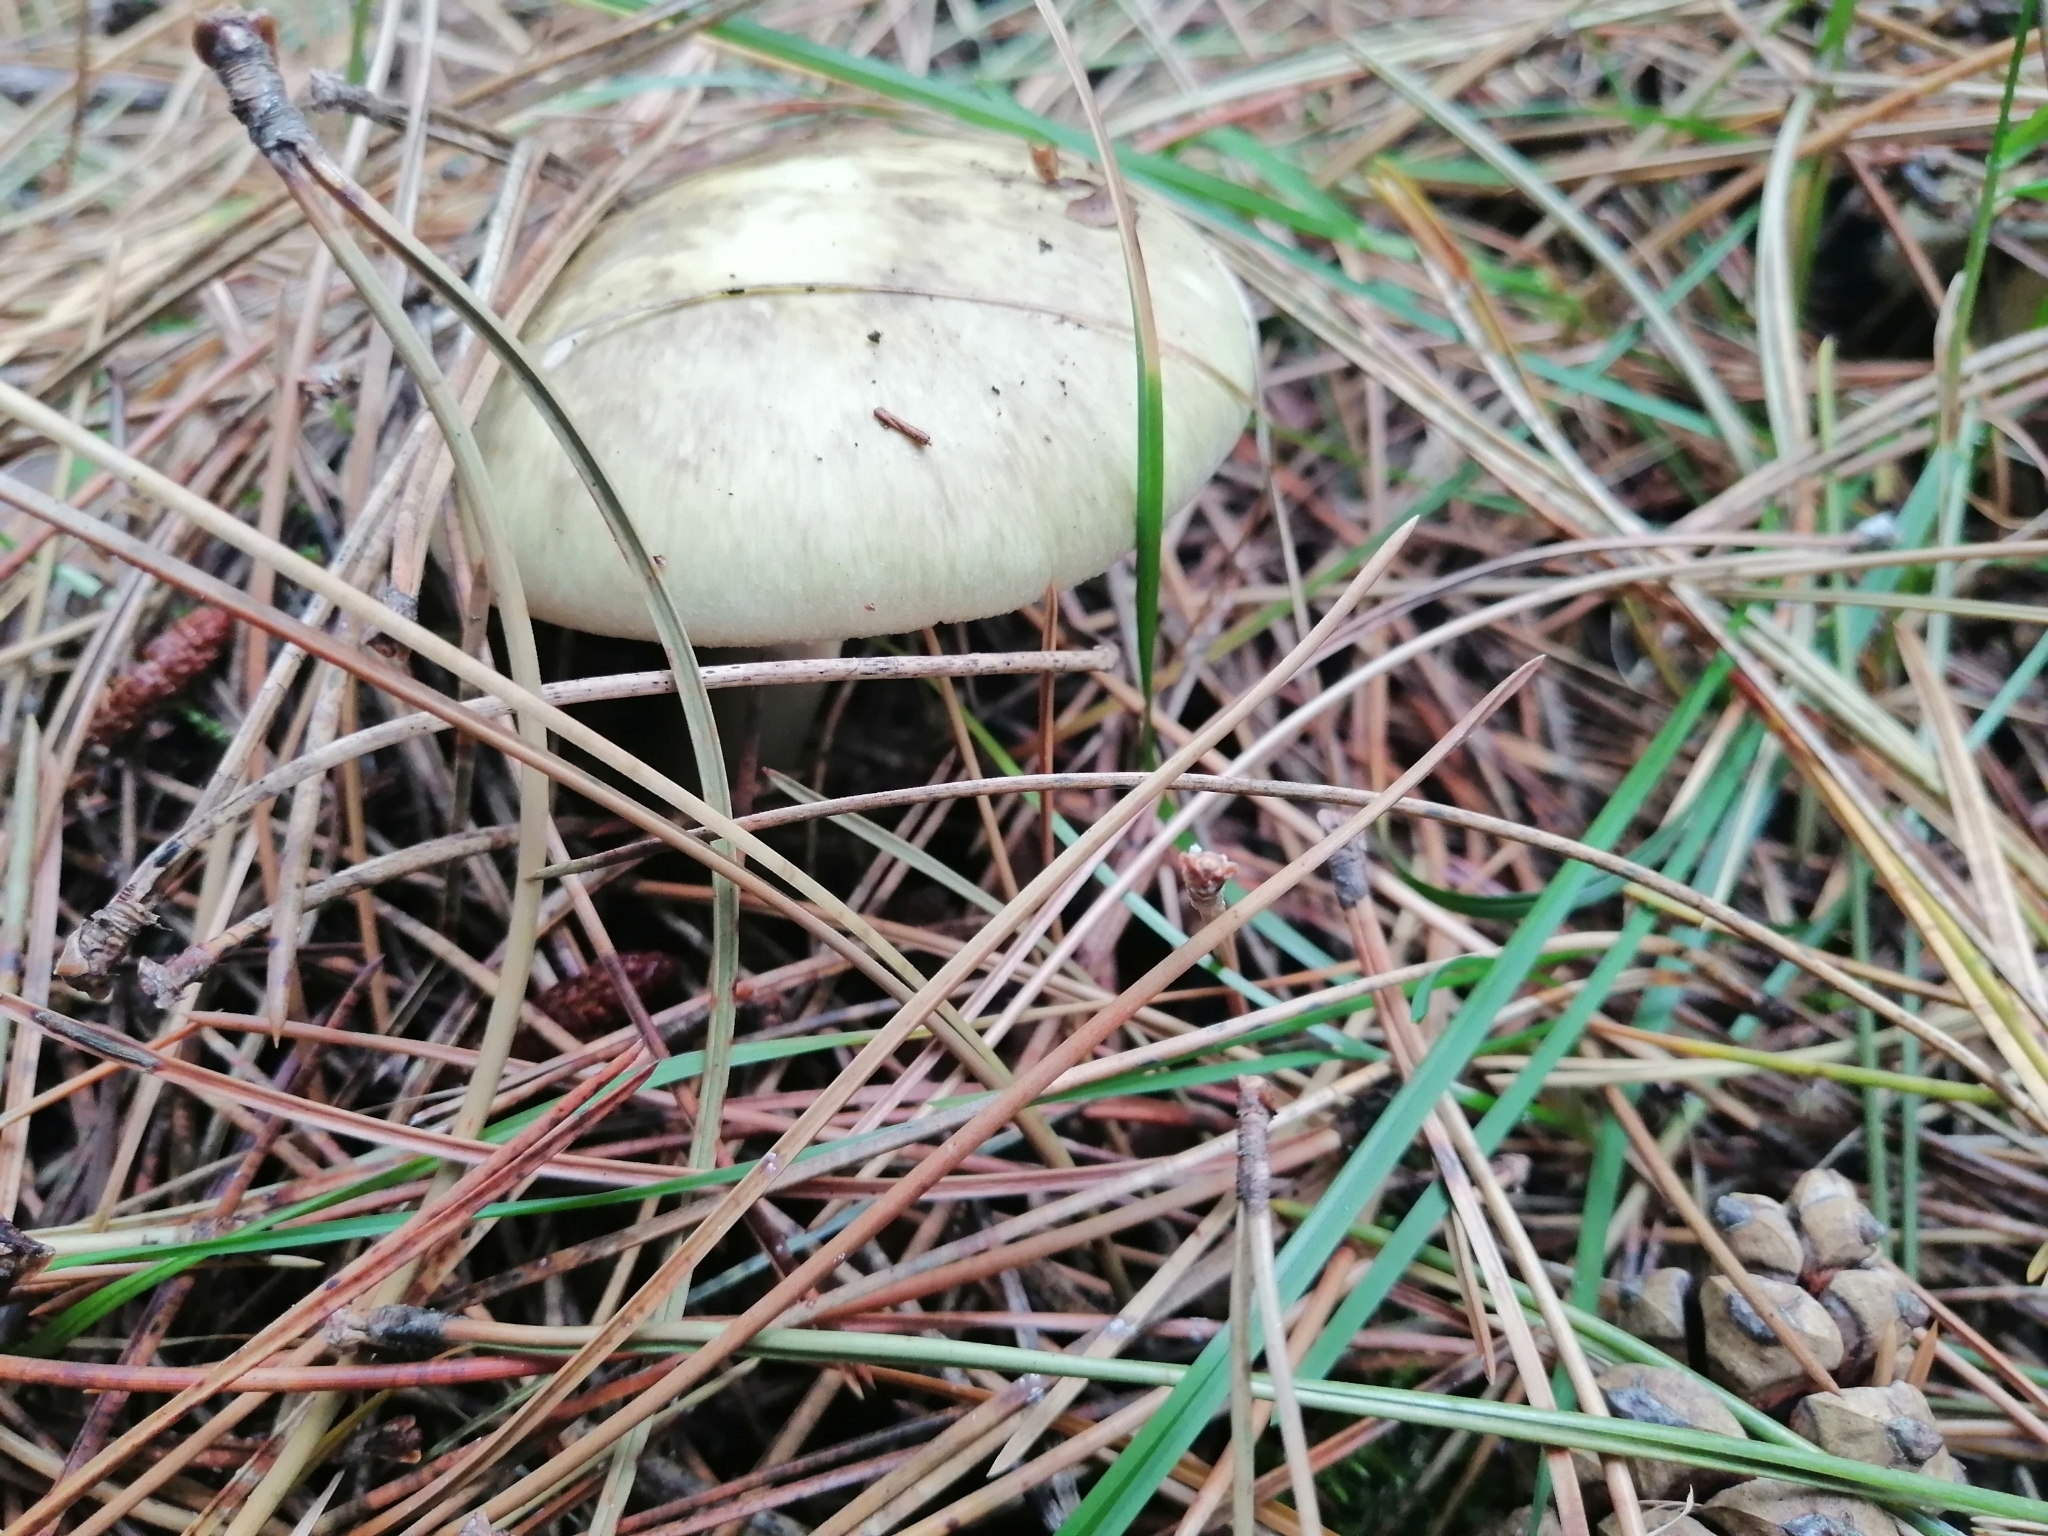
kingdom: Fungi
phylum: Basidiomycota
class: Agaricomycetes
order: Agaricales
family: Amanitaceae
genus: Amanita
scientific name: Amanita phalloides
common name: Death cap
